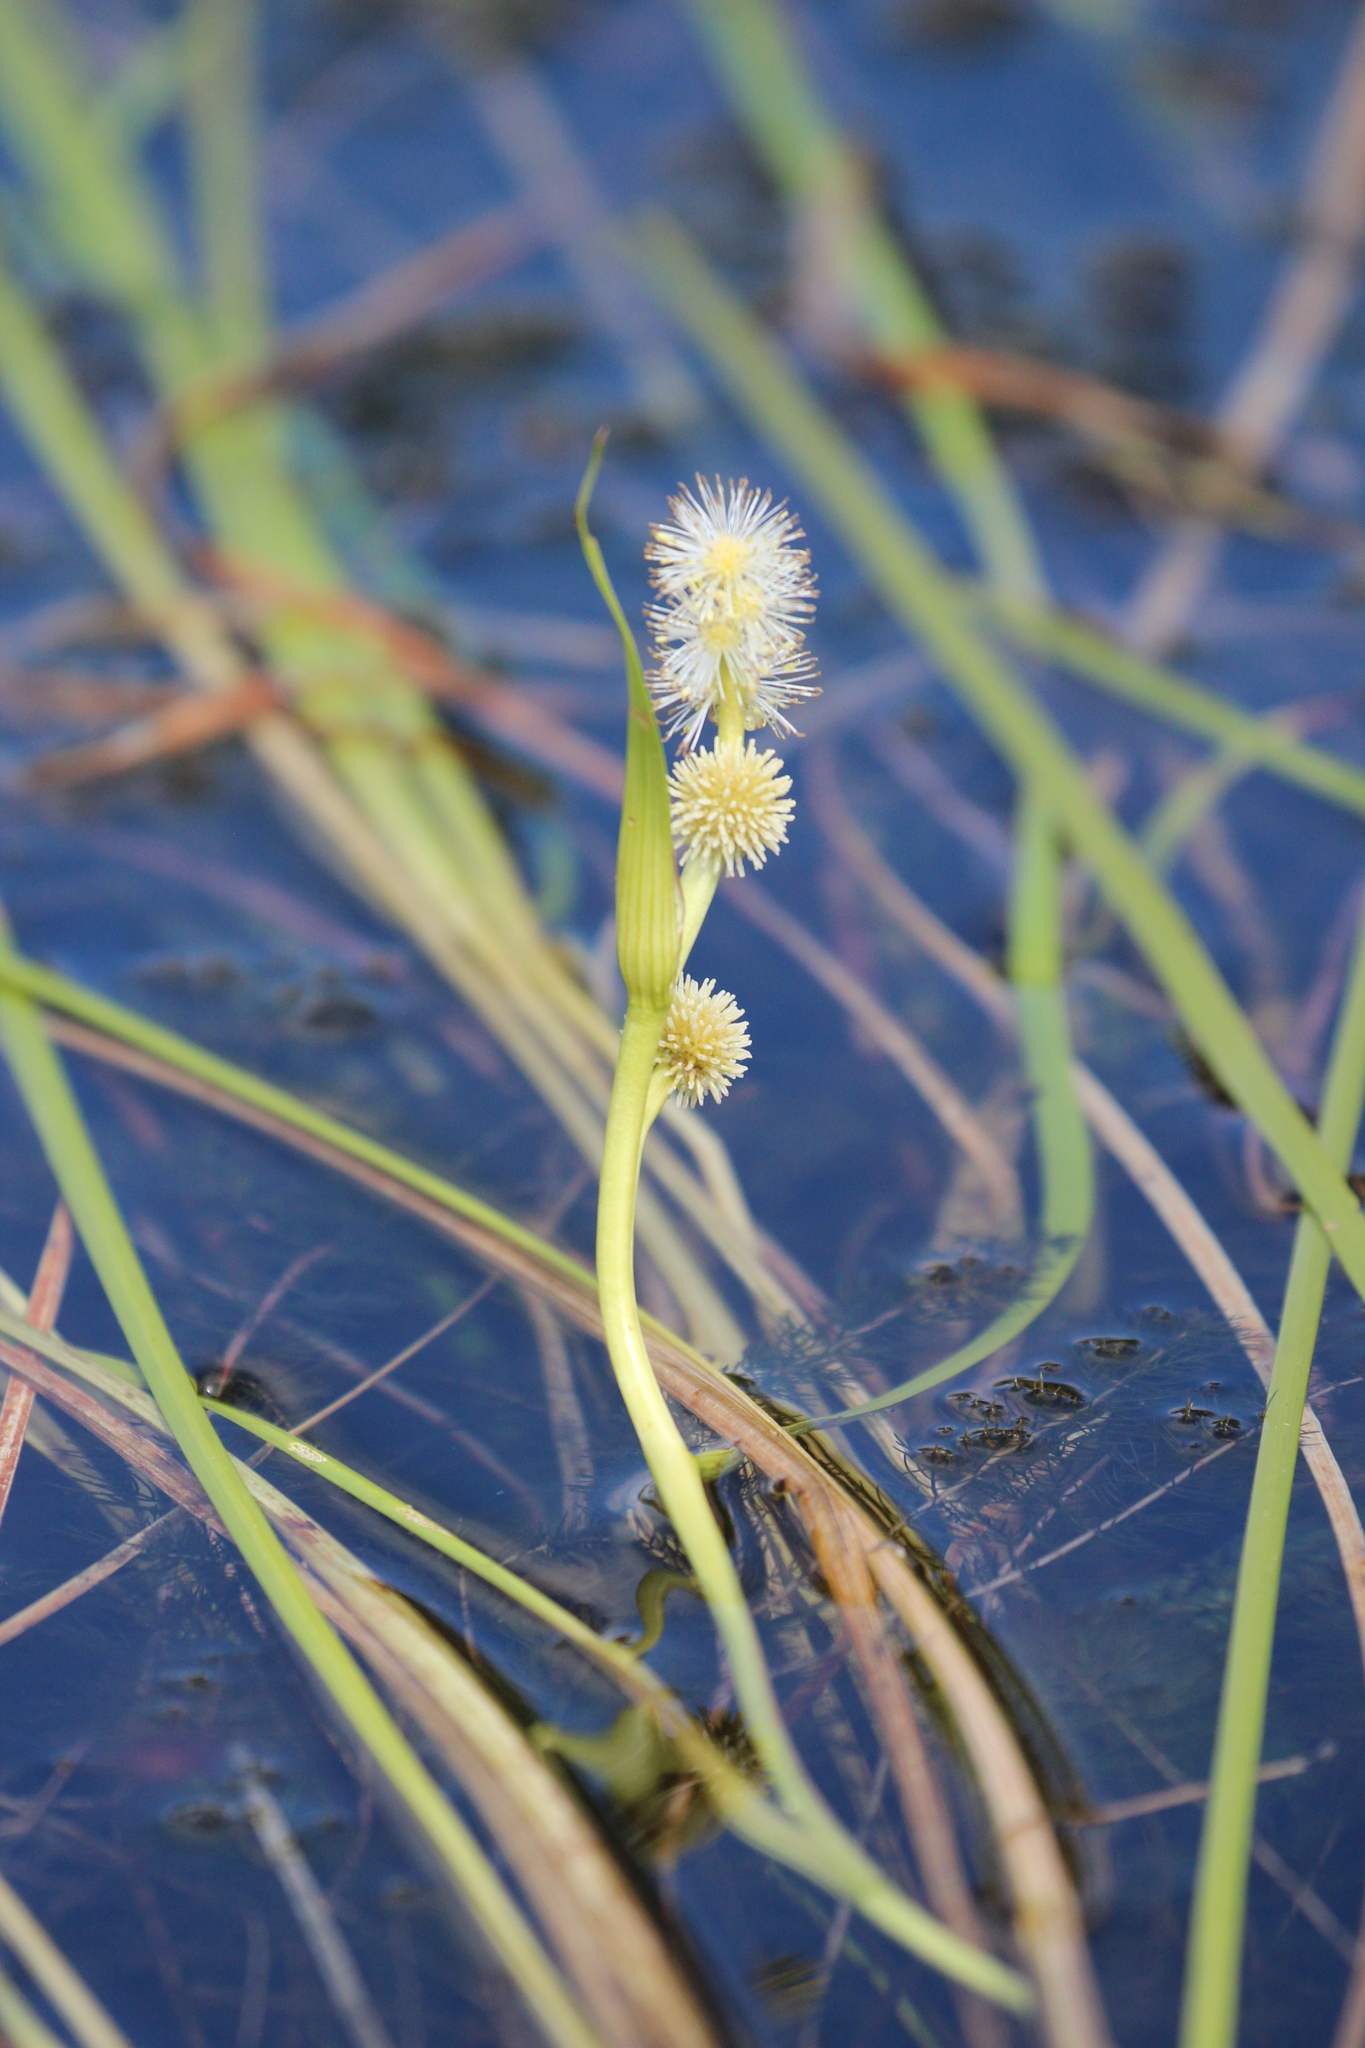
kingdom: Plantae
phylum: Tracheophyta
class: Liliopsida
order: Poales
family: Typhaceae
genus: Sparganium
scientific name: Sparganium angustifolium
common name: Floating bur-reed
